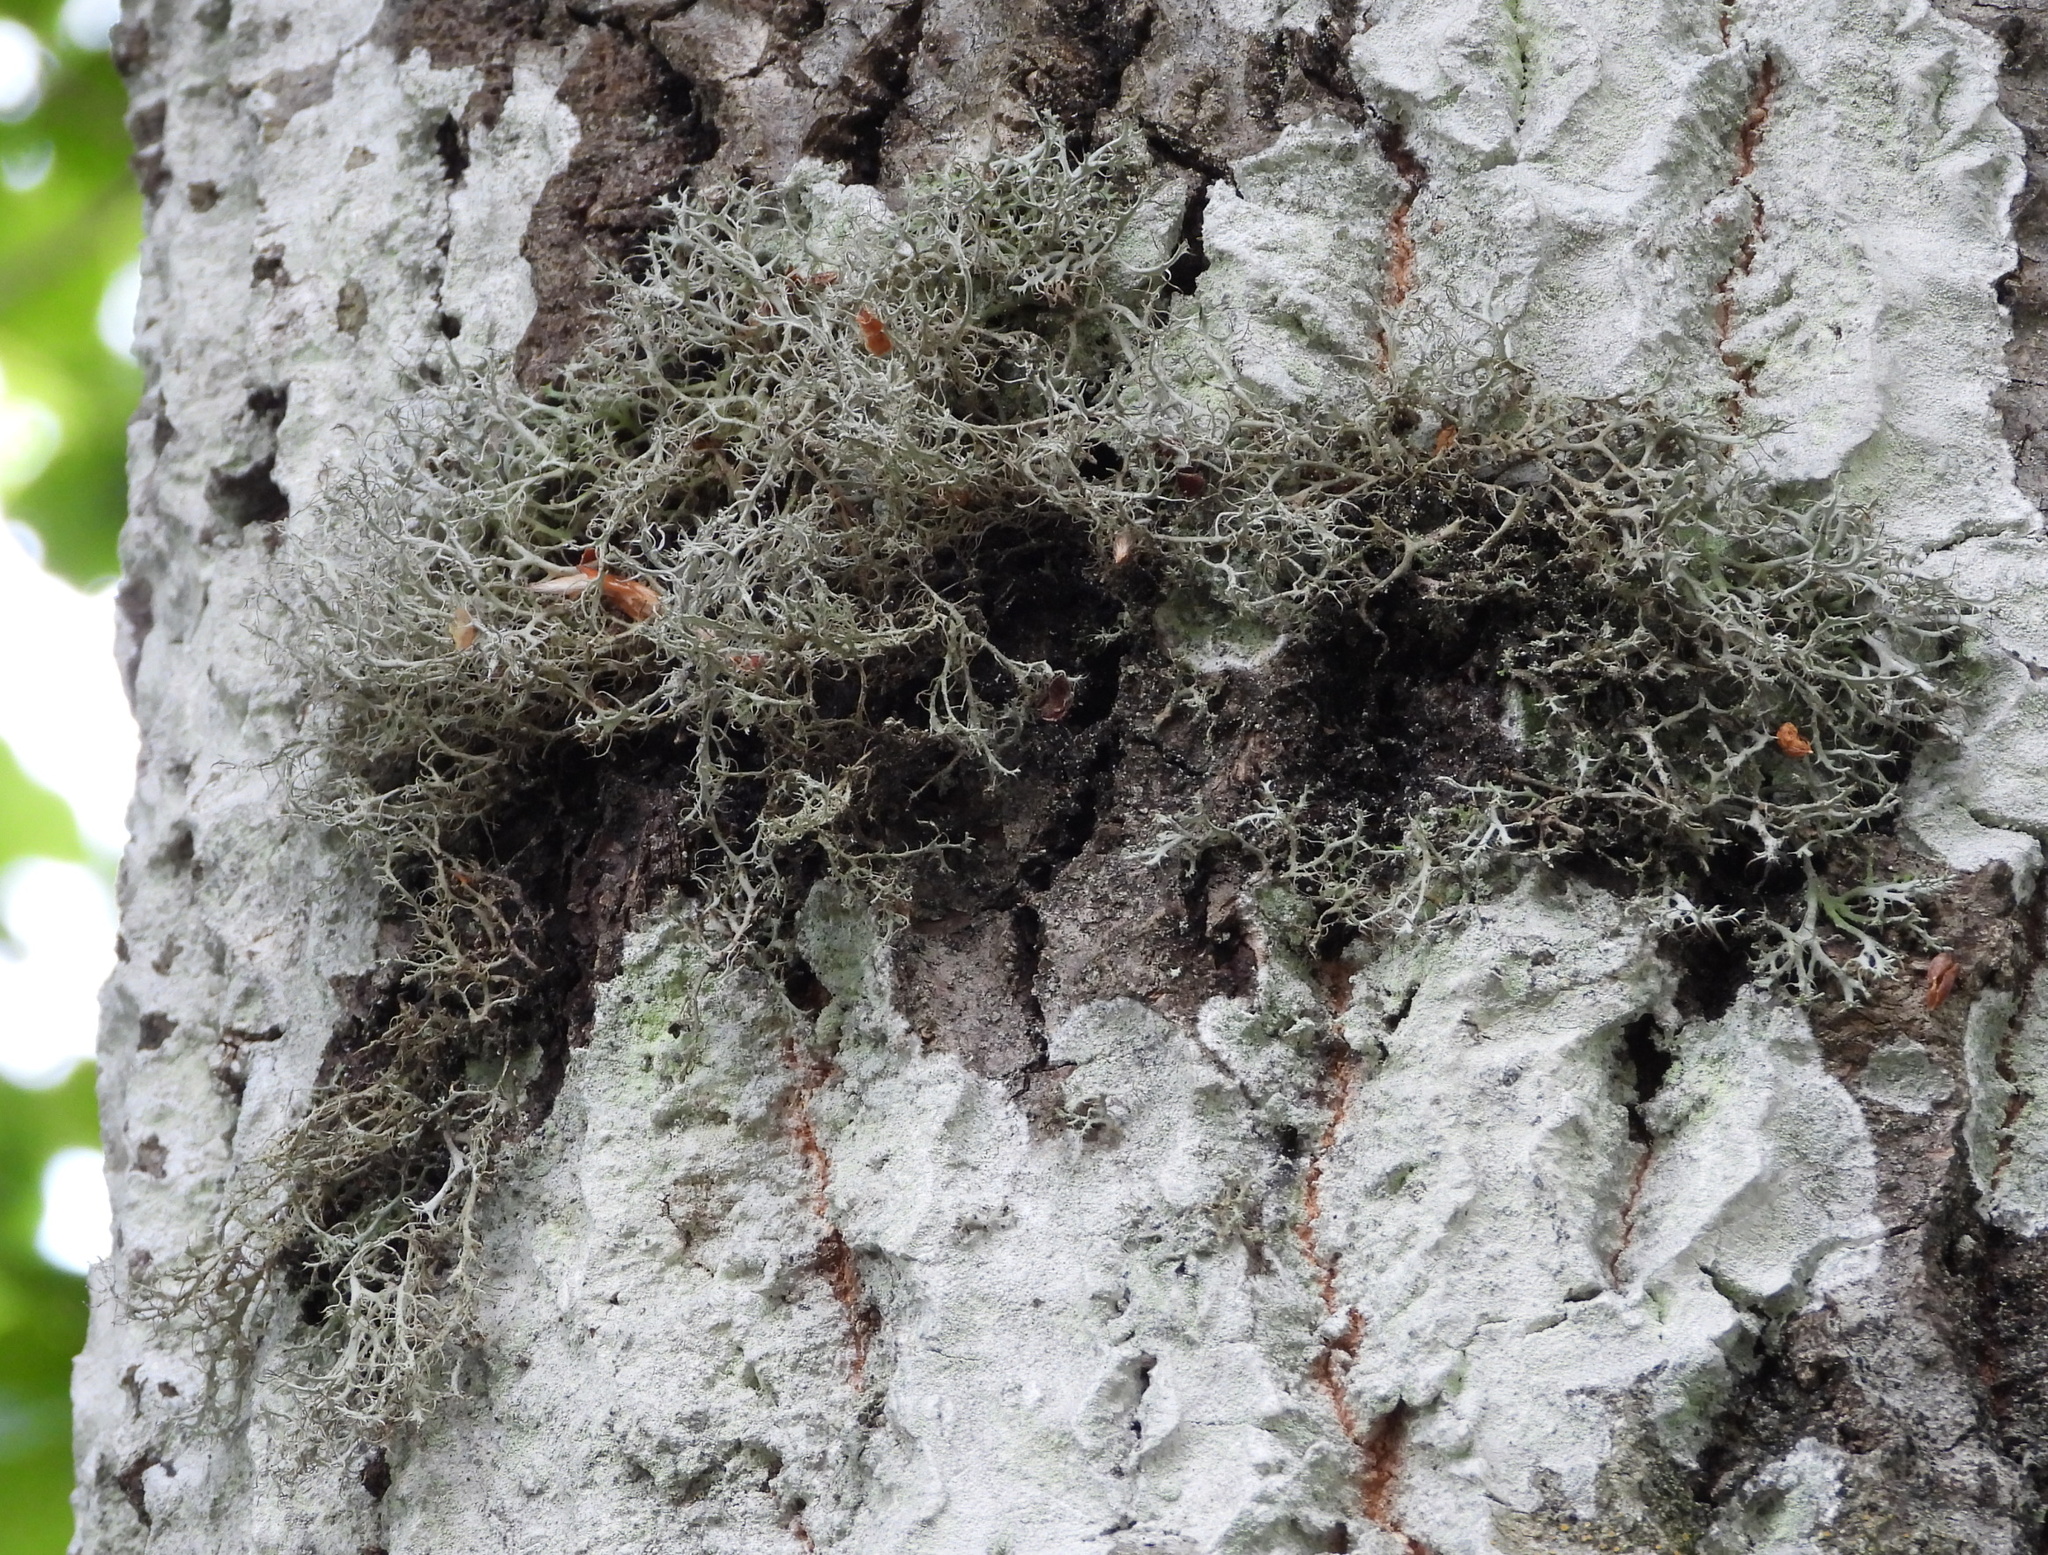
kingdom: Fungi
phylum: Ascomycota
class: Lecanoromycetes
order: Caliciales
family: Physciaceae
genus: Anaptychia
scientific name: Anaptychia ciliaris
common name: Great ciliated lichen
